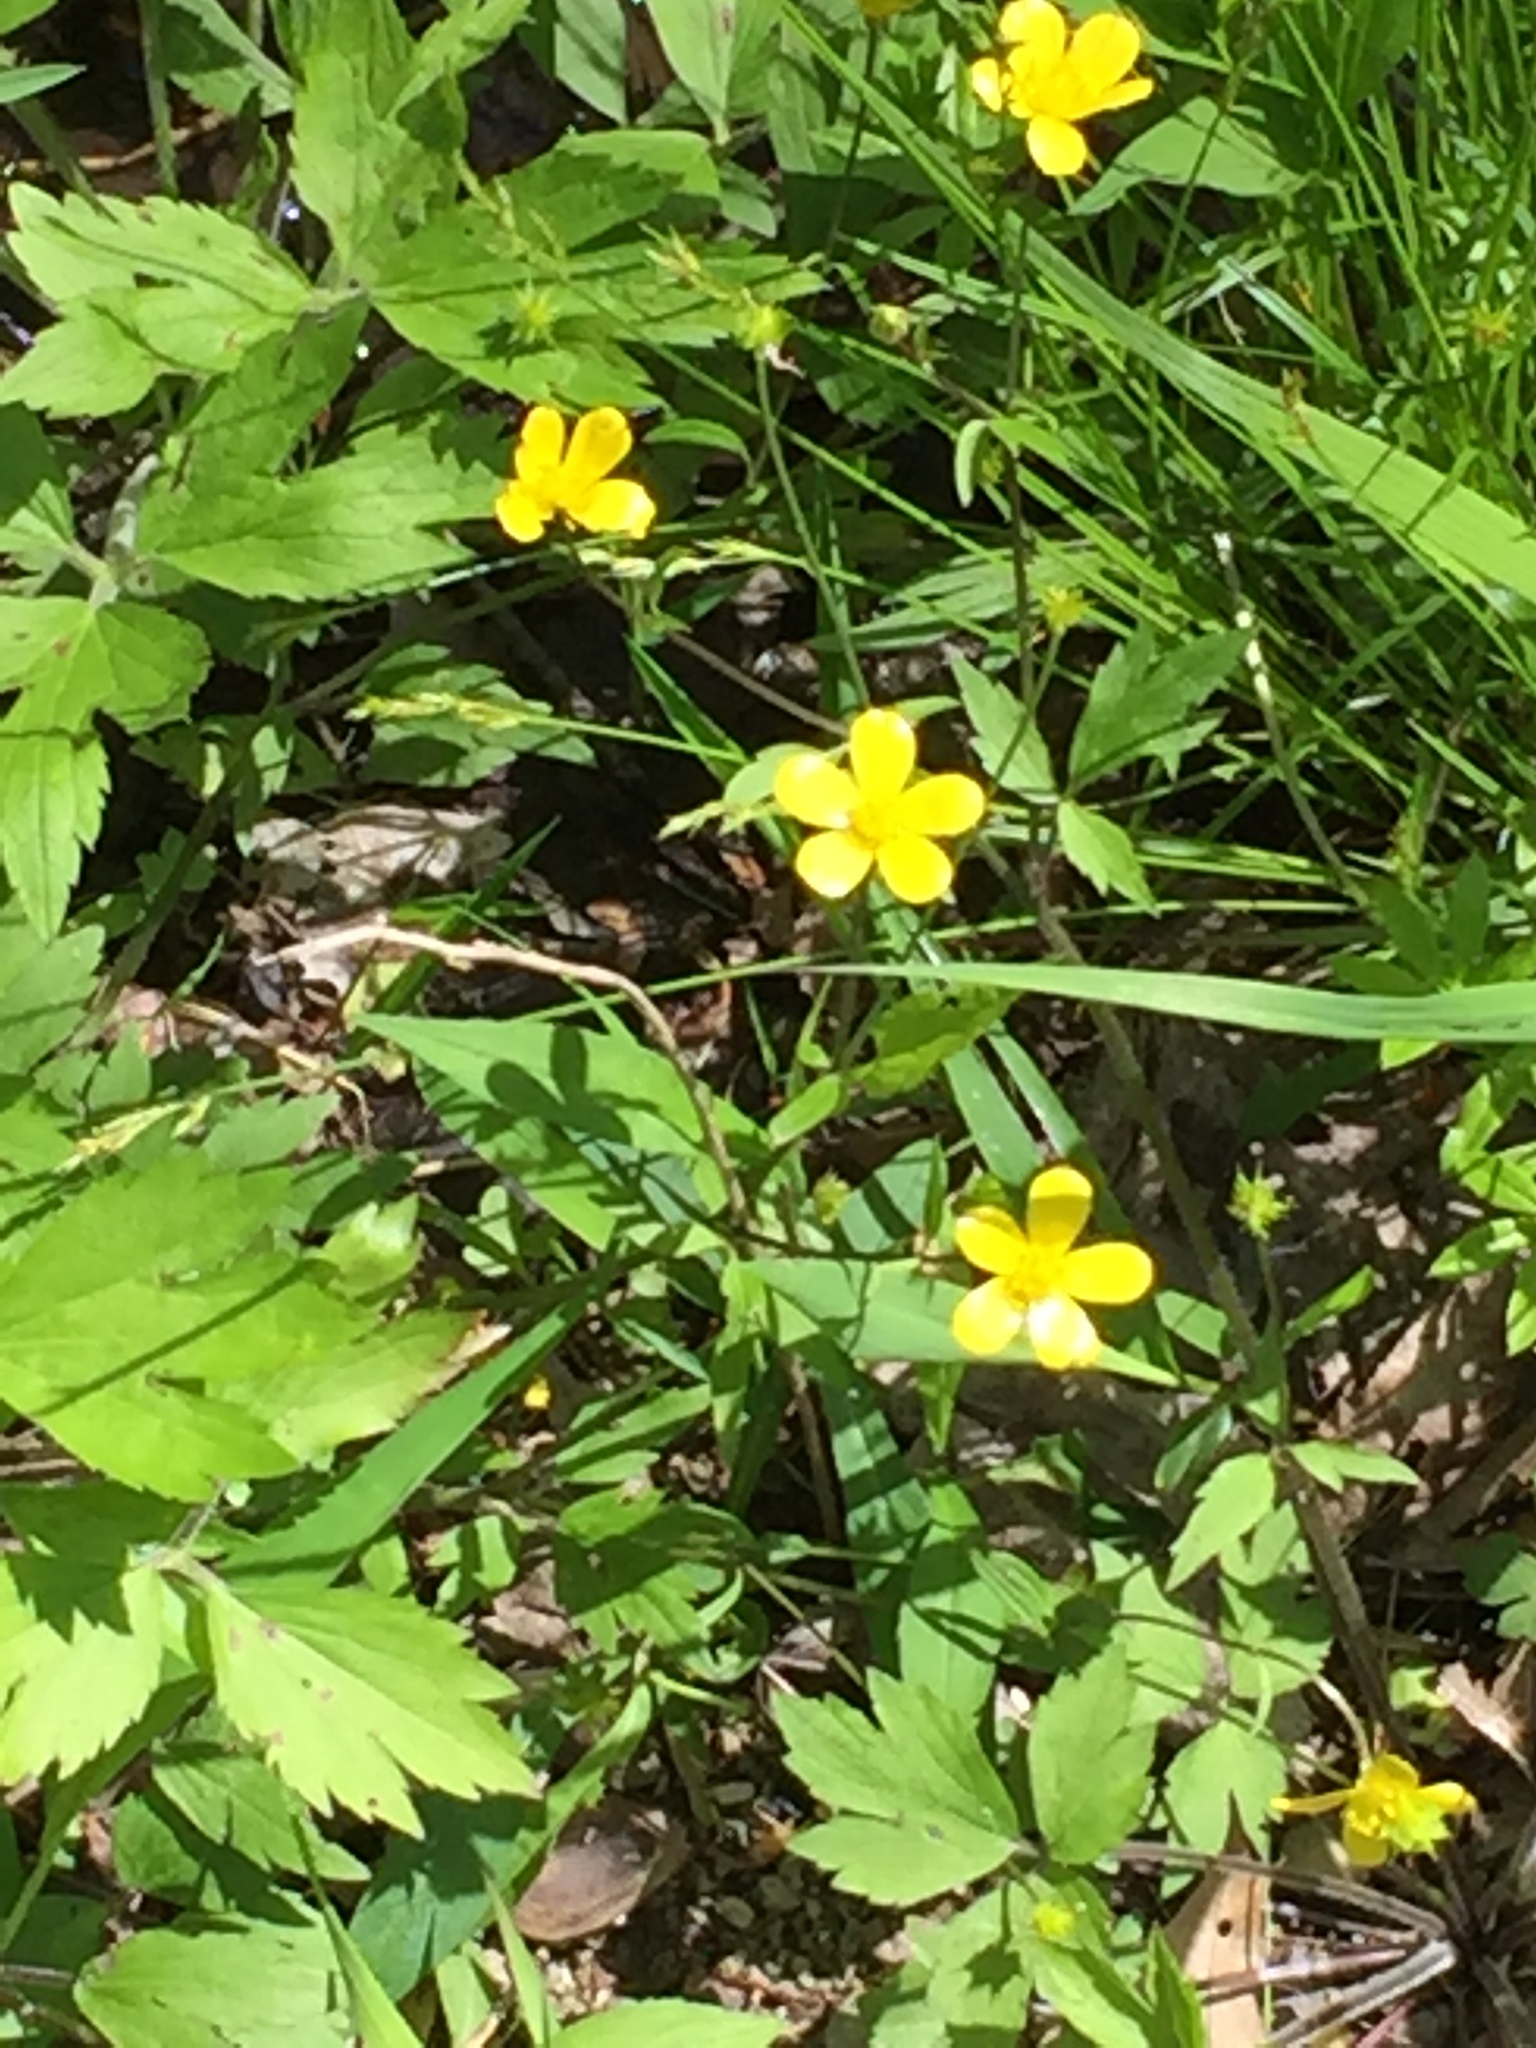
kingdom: Plantae
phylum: Tracheophyta
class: Magnoliopsida
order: Ranunculales
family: Ranunculaceae
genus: Ranunculus
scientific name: Ranunculus hispidus
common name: Bristly buttercup
